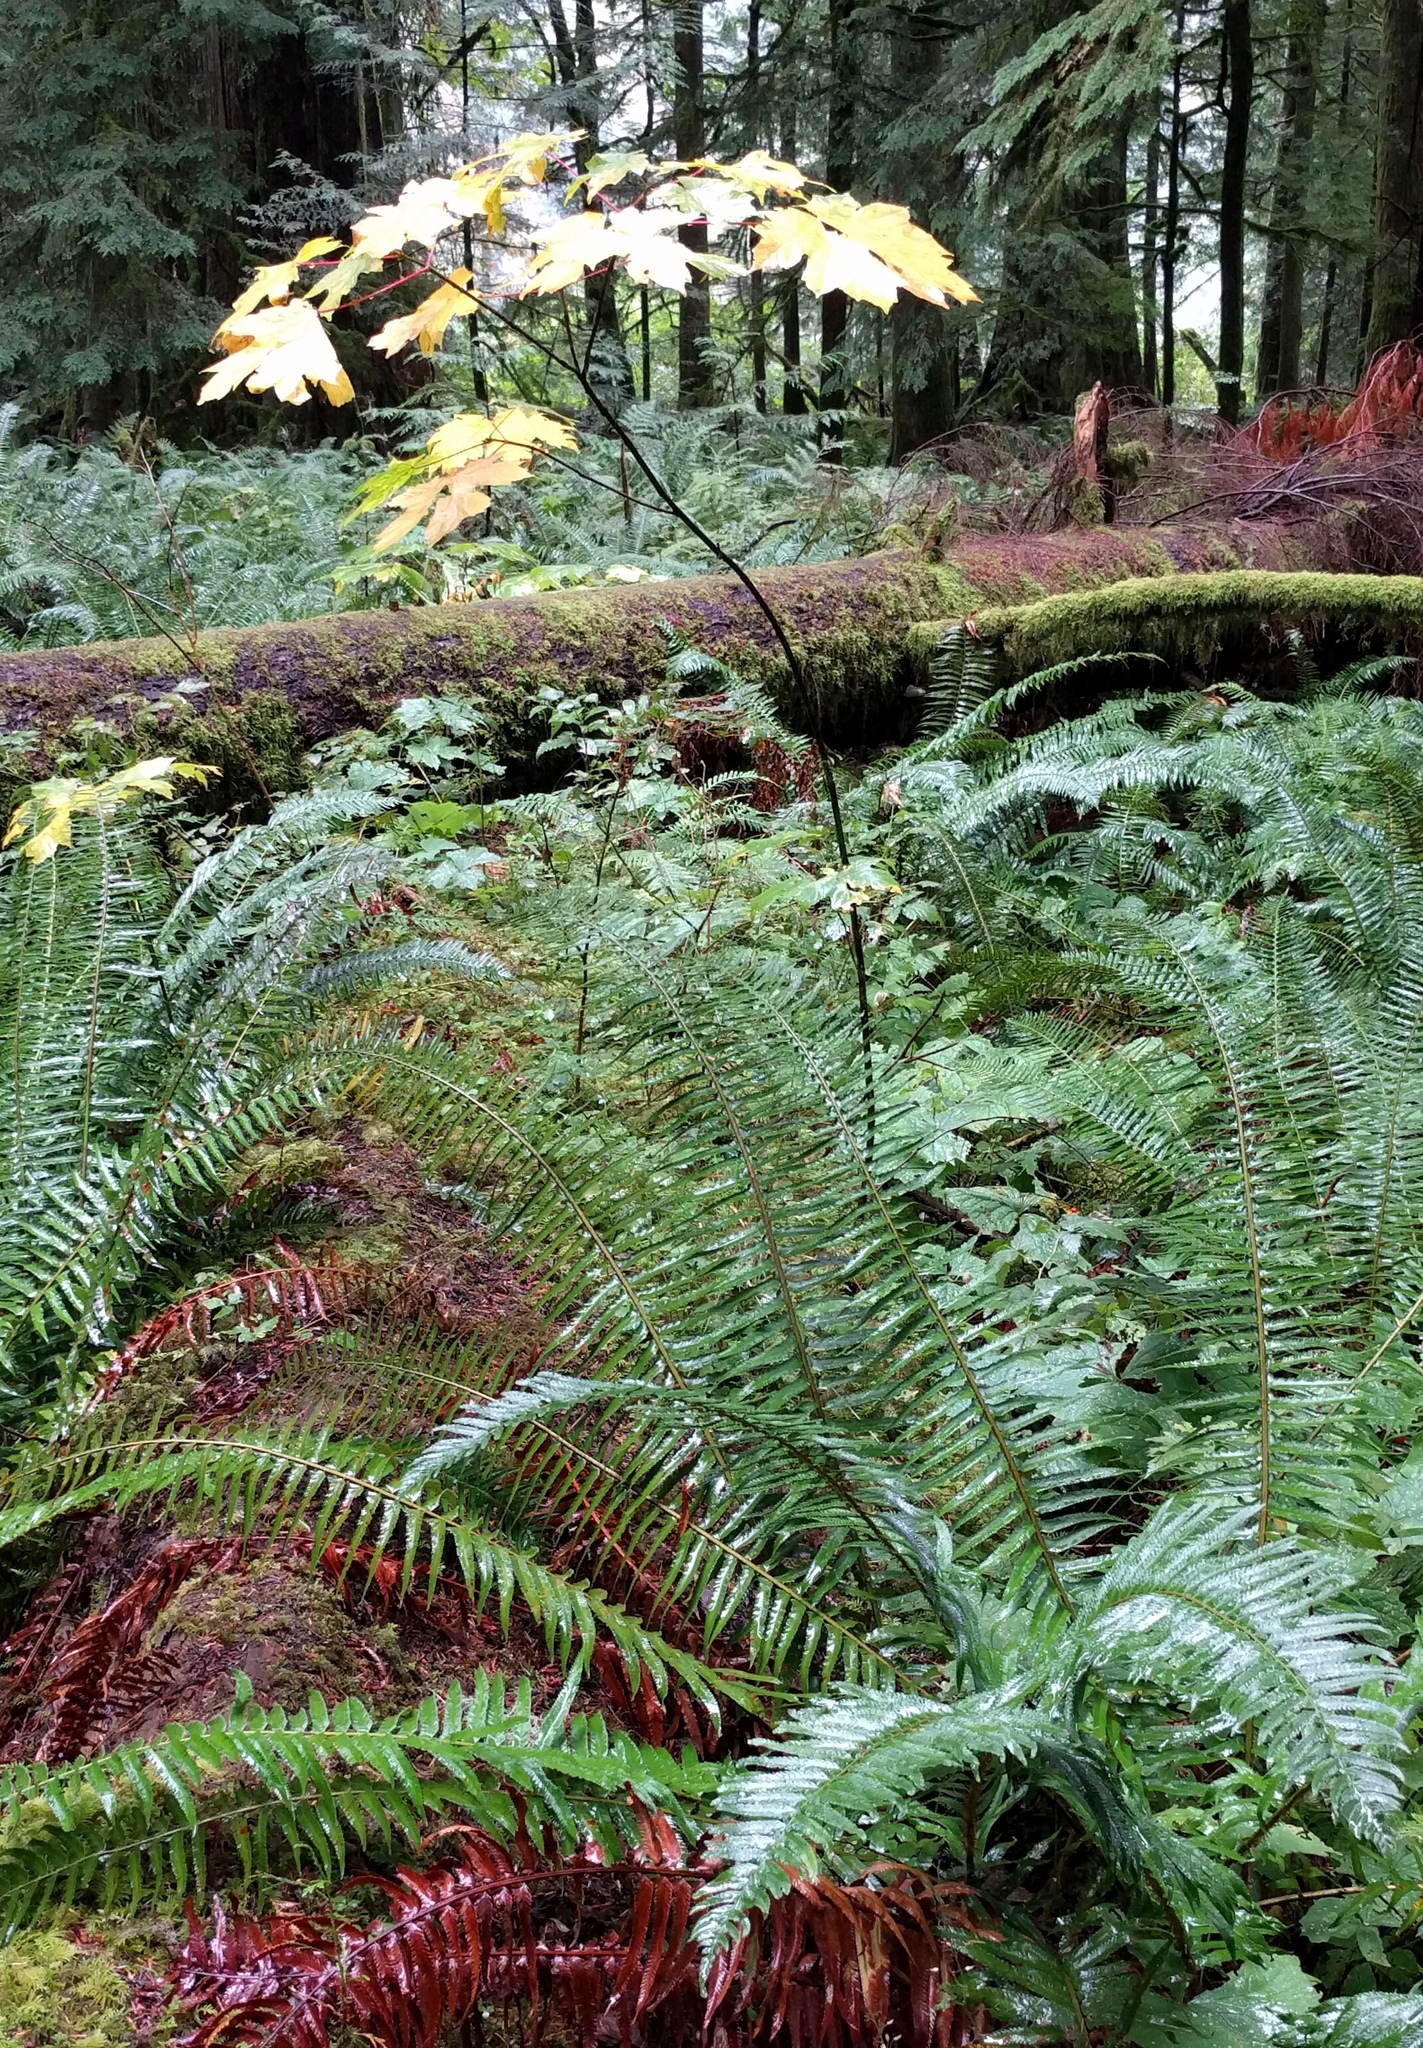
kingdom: Plantae
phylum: Tracheophyta
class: Magnoliopsida
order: Sapindales
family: Sapindaceae
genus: Acer
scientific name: Acer macrophyllum
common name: Oregon maple
